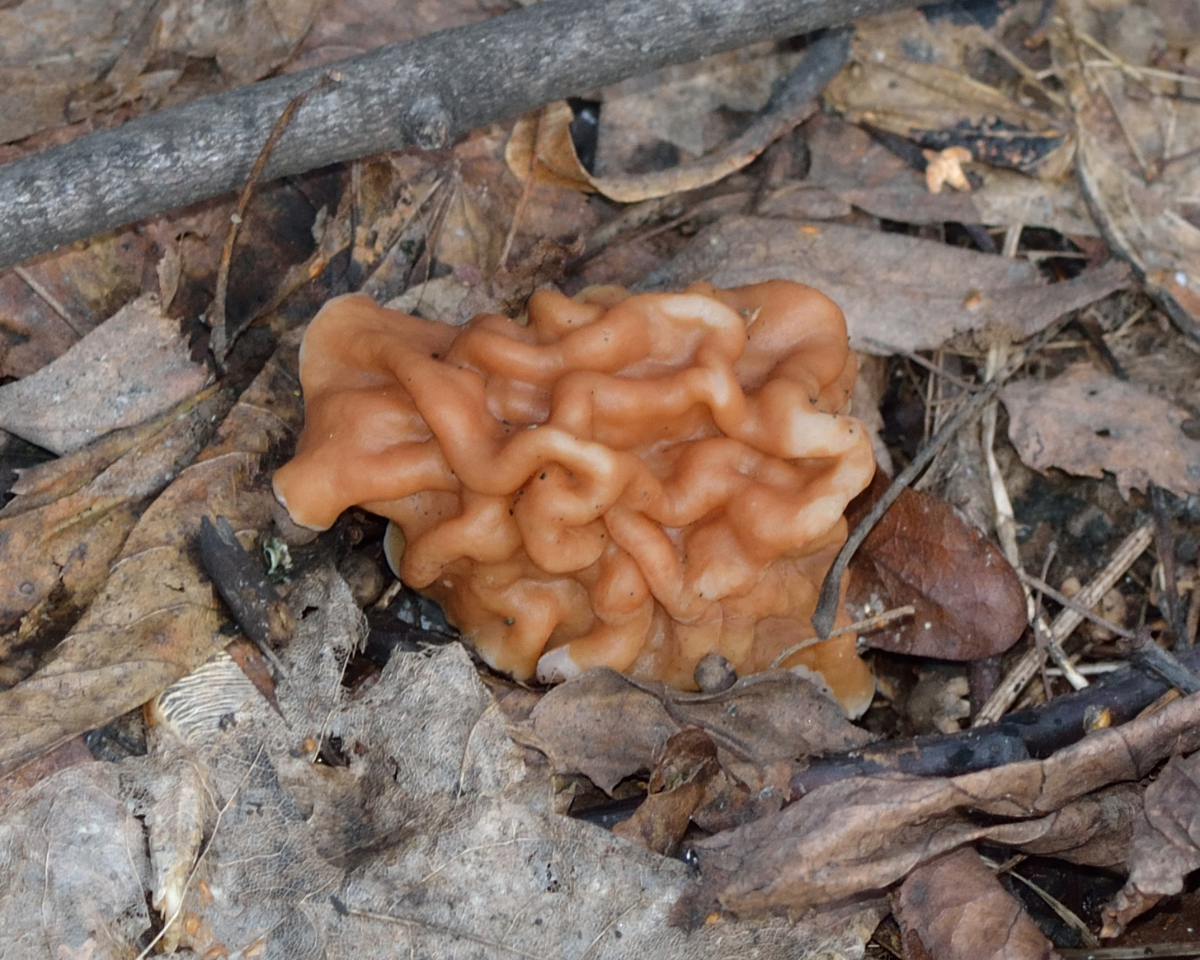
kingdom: Fungi
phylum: Ascomycota
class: Pezizomycetes
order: Pezizales
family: Discinaceae
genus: Gyromitra
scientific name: Gyromitra gigas
